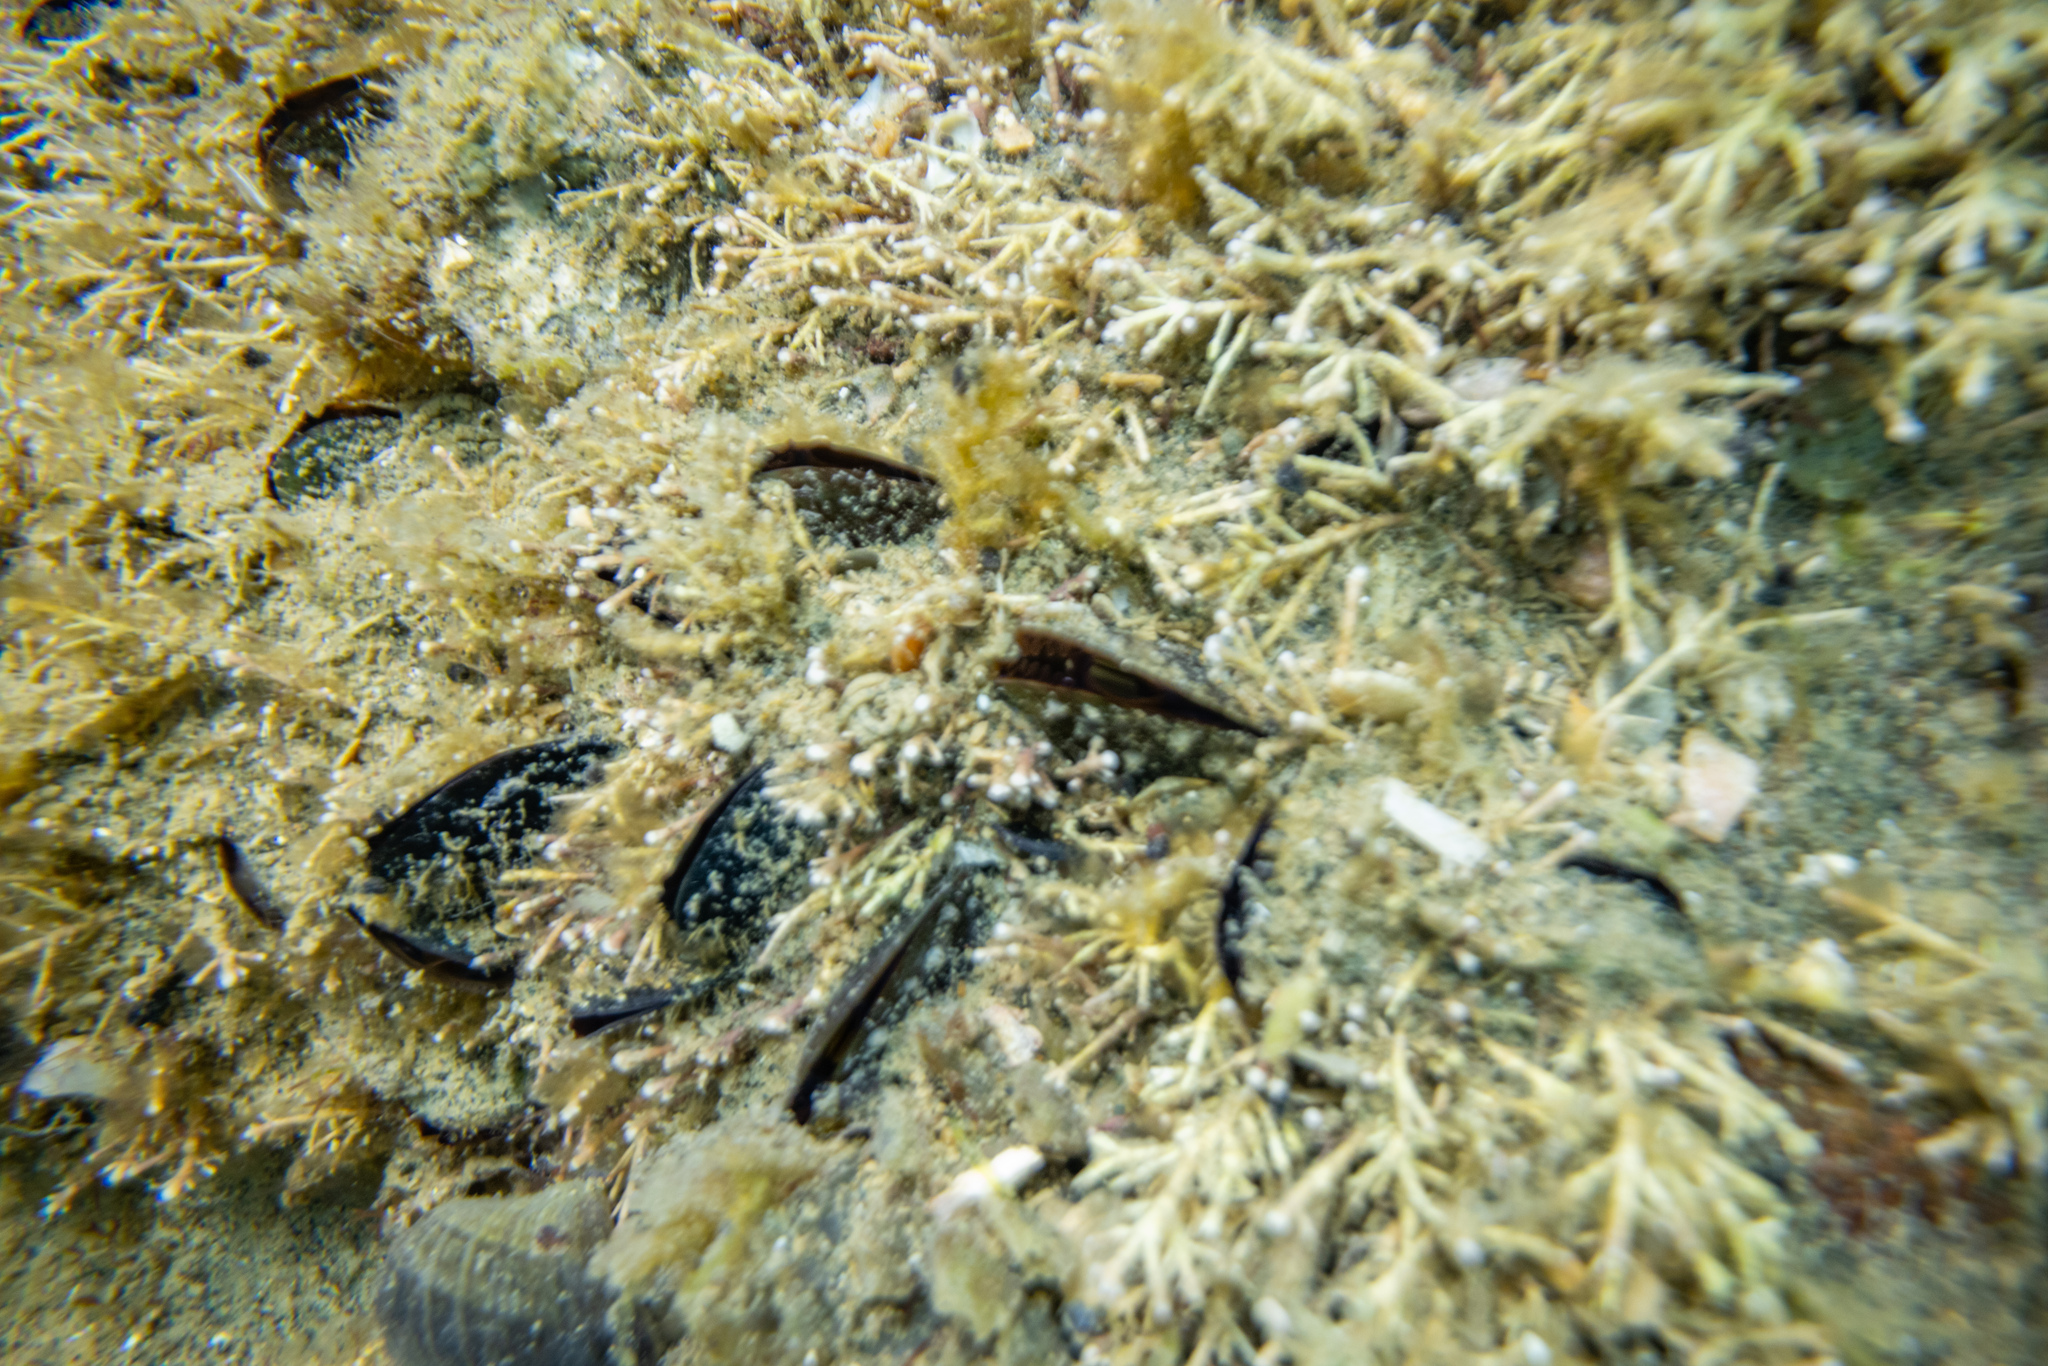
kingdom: Animalia
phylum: Mollusca
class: Bivalvia
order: Mytilida
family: Mytilidae
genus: Perna
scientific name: Perna canaliculus
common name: New zealand greenshelltm
